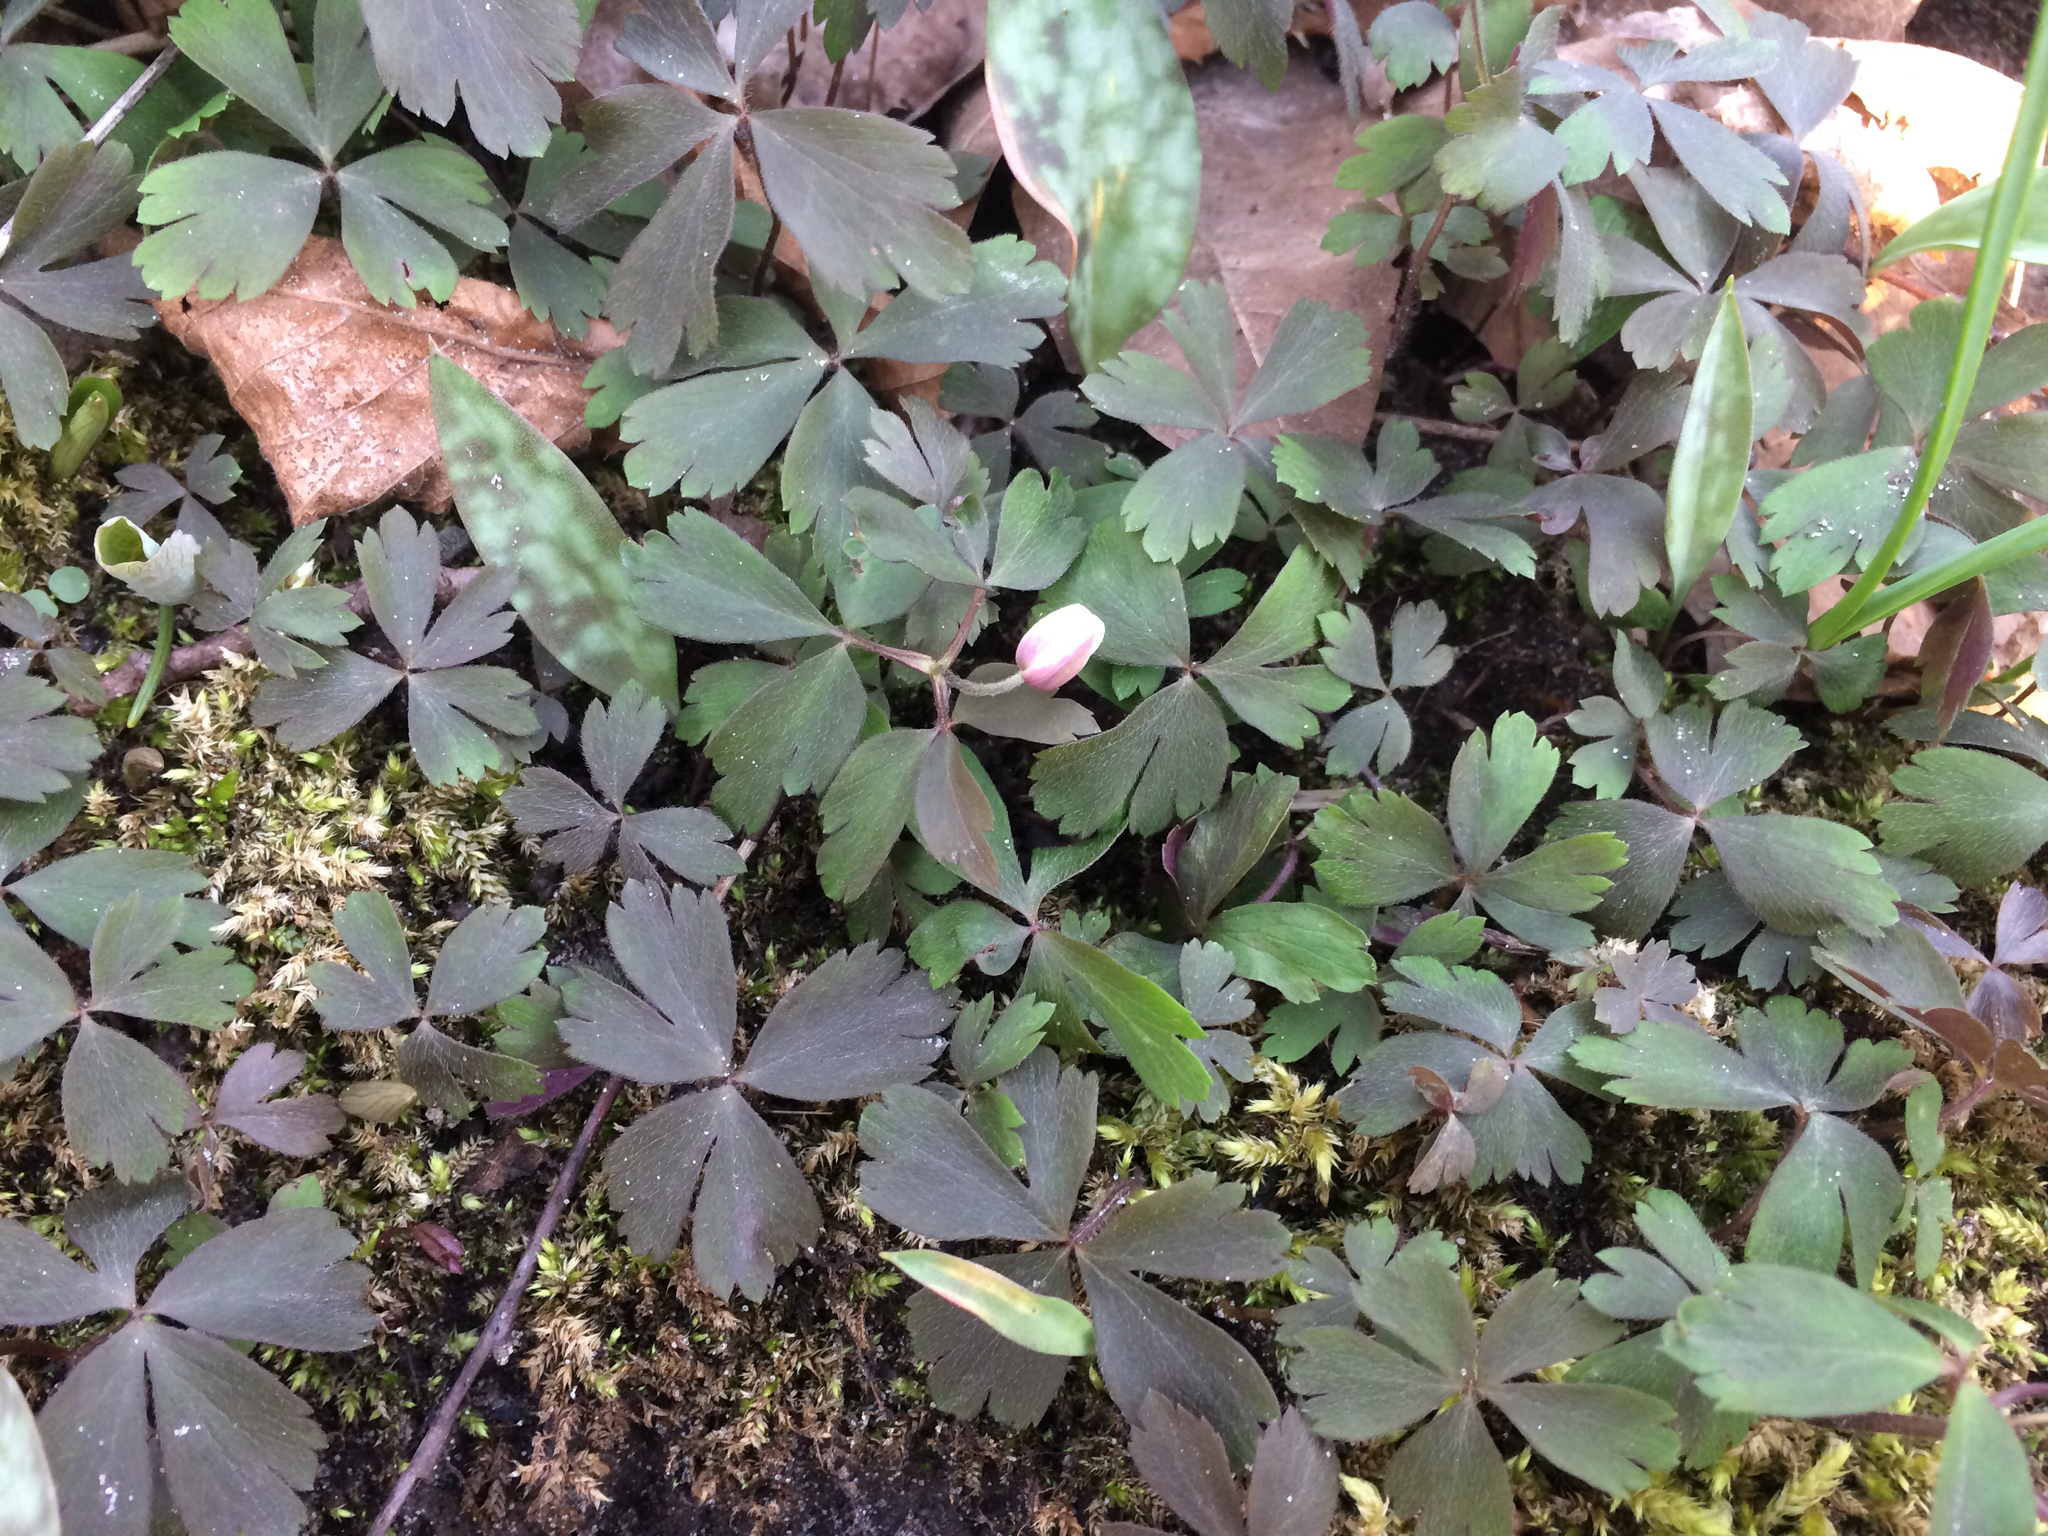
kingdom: Plantae
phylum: Tracheophyta
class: Magnoliopsida
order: Ranunculales
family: Ranunculaceae
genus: Anemone
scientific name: Anemone quinquefolia
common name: Wood anemone
